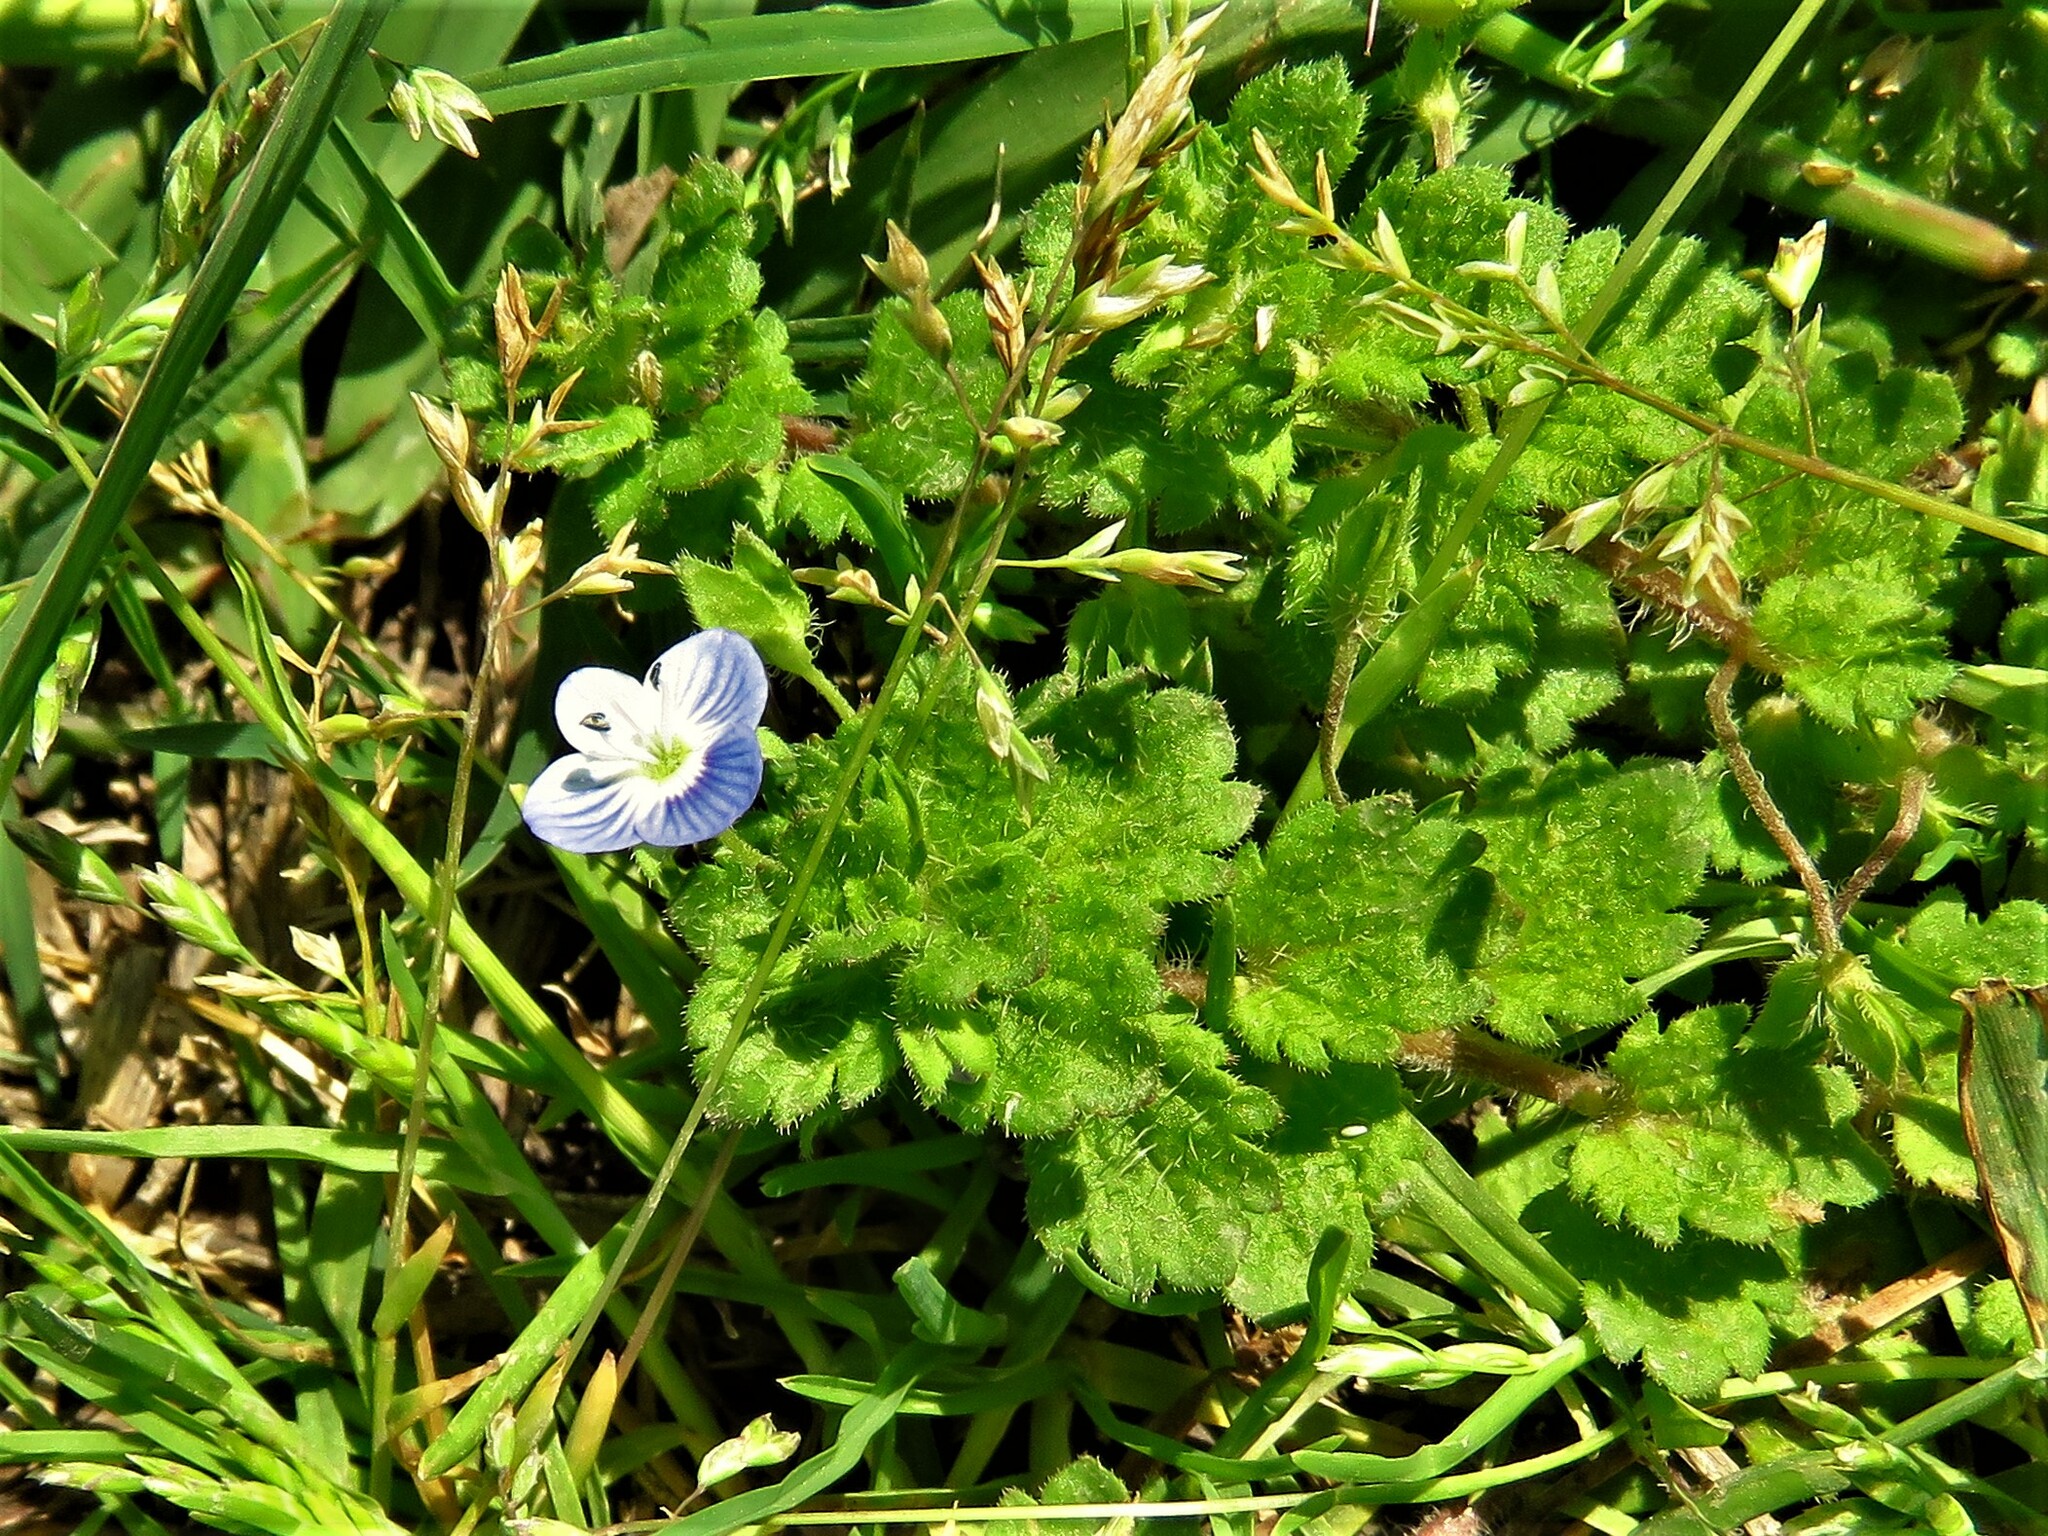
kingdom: Plantae
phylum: Tracheophyta
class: Magnoliopsida
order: Lamiales
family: Plantaginaceae
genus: Veronica
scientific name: Veronica persica
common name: Common field-speedwell
